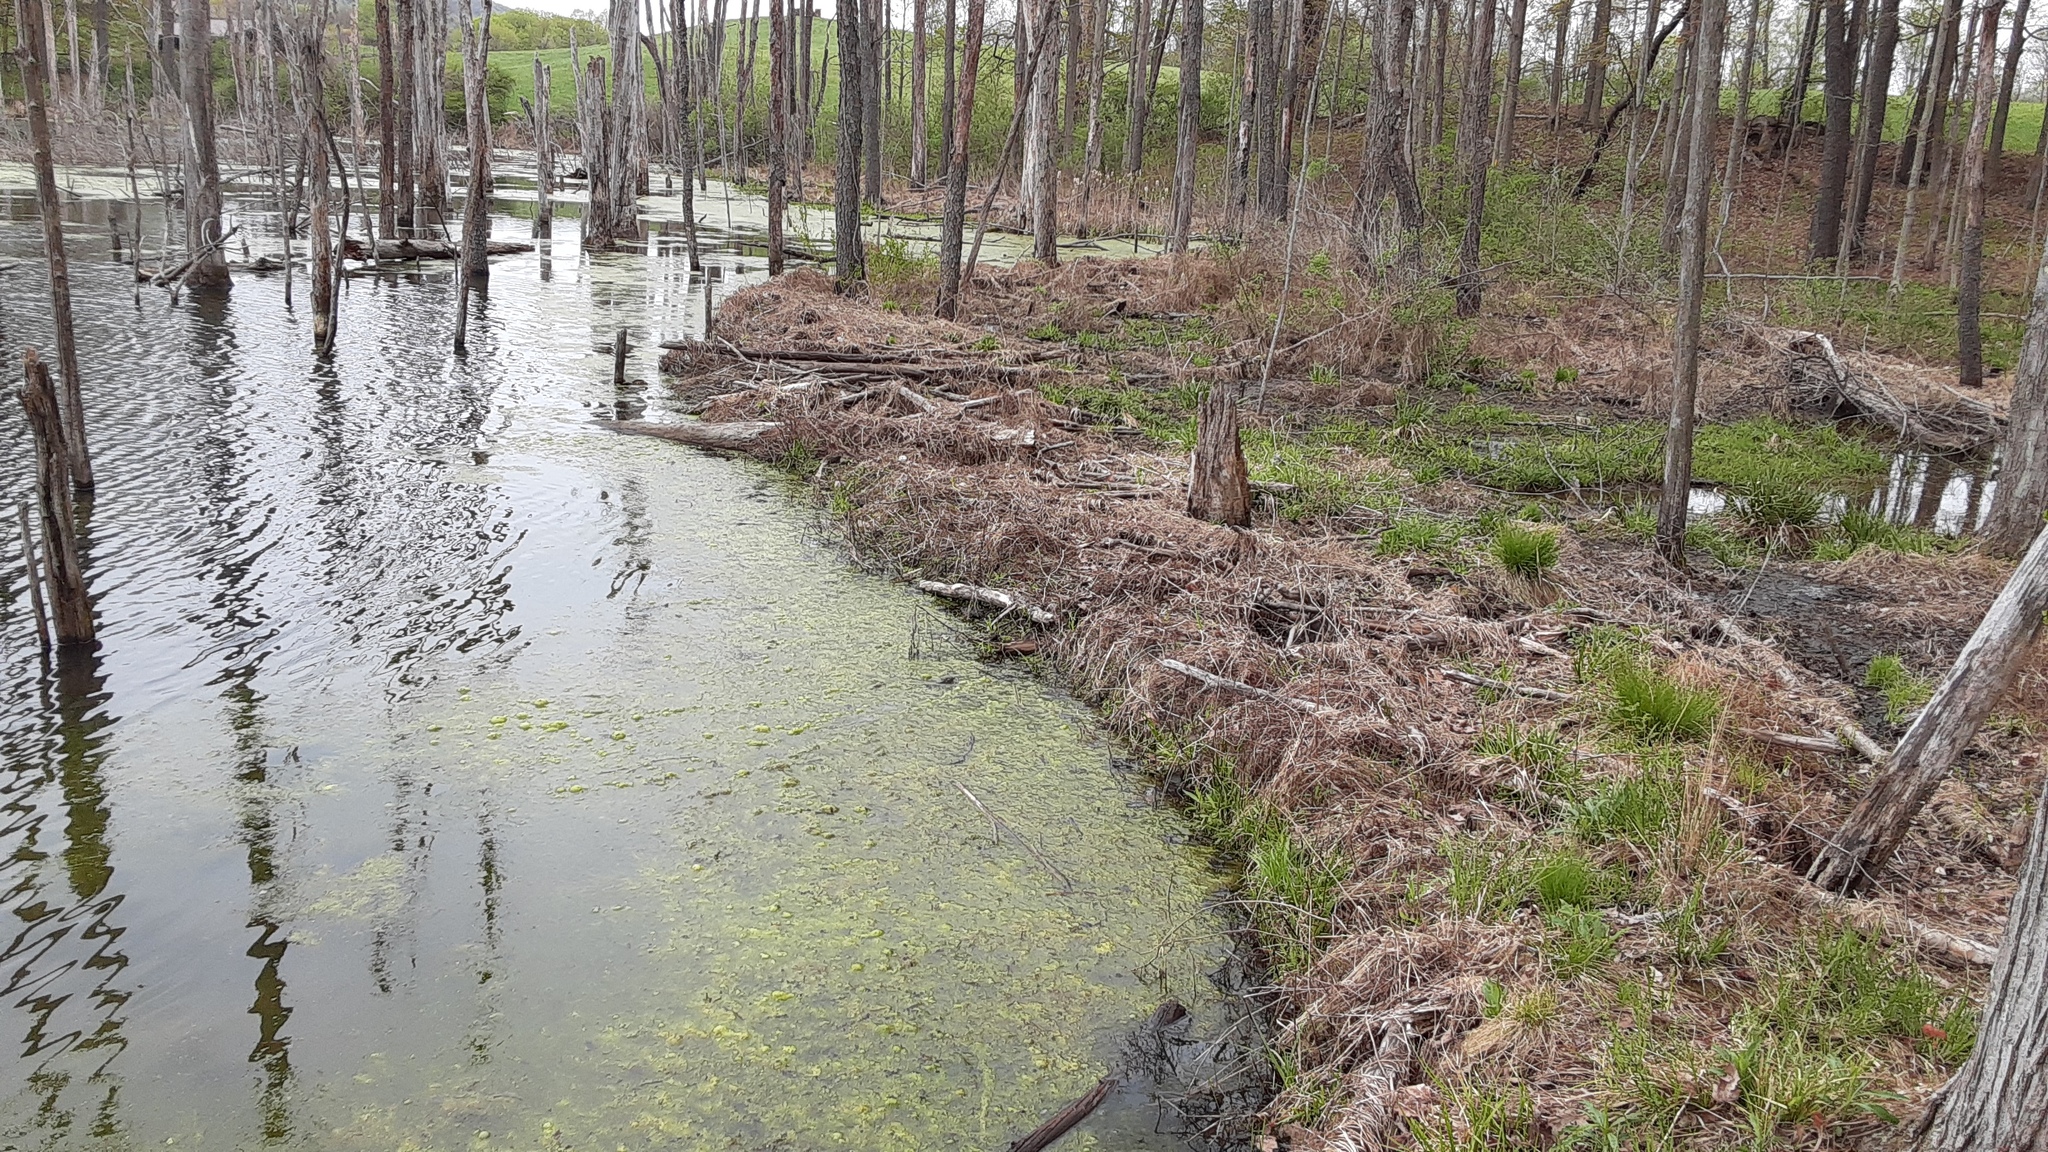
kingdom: Animalia
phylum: Chordata
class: Mammalia
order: Rodentia
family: Castoridae
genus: Castor
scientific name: Castor canadensis
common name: American beaver
